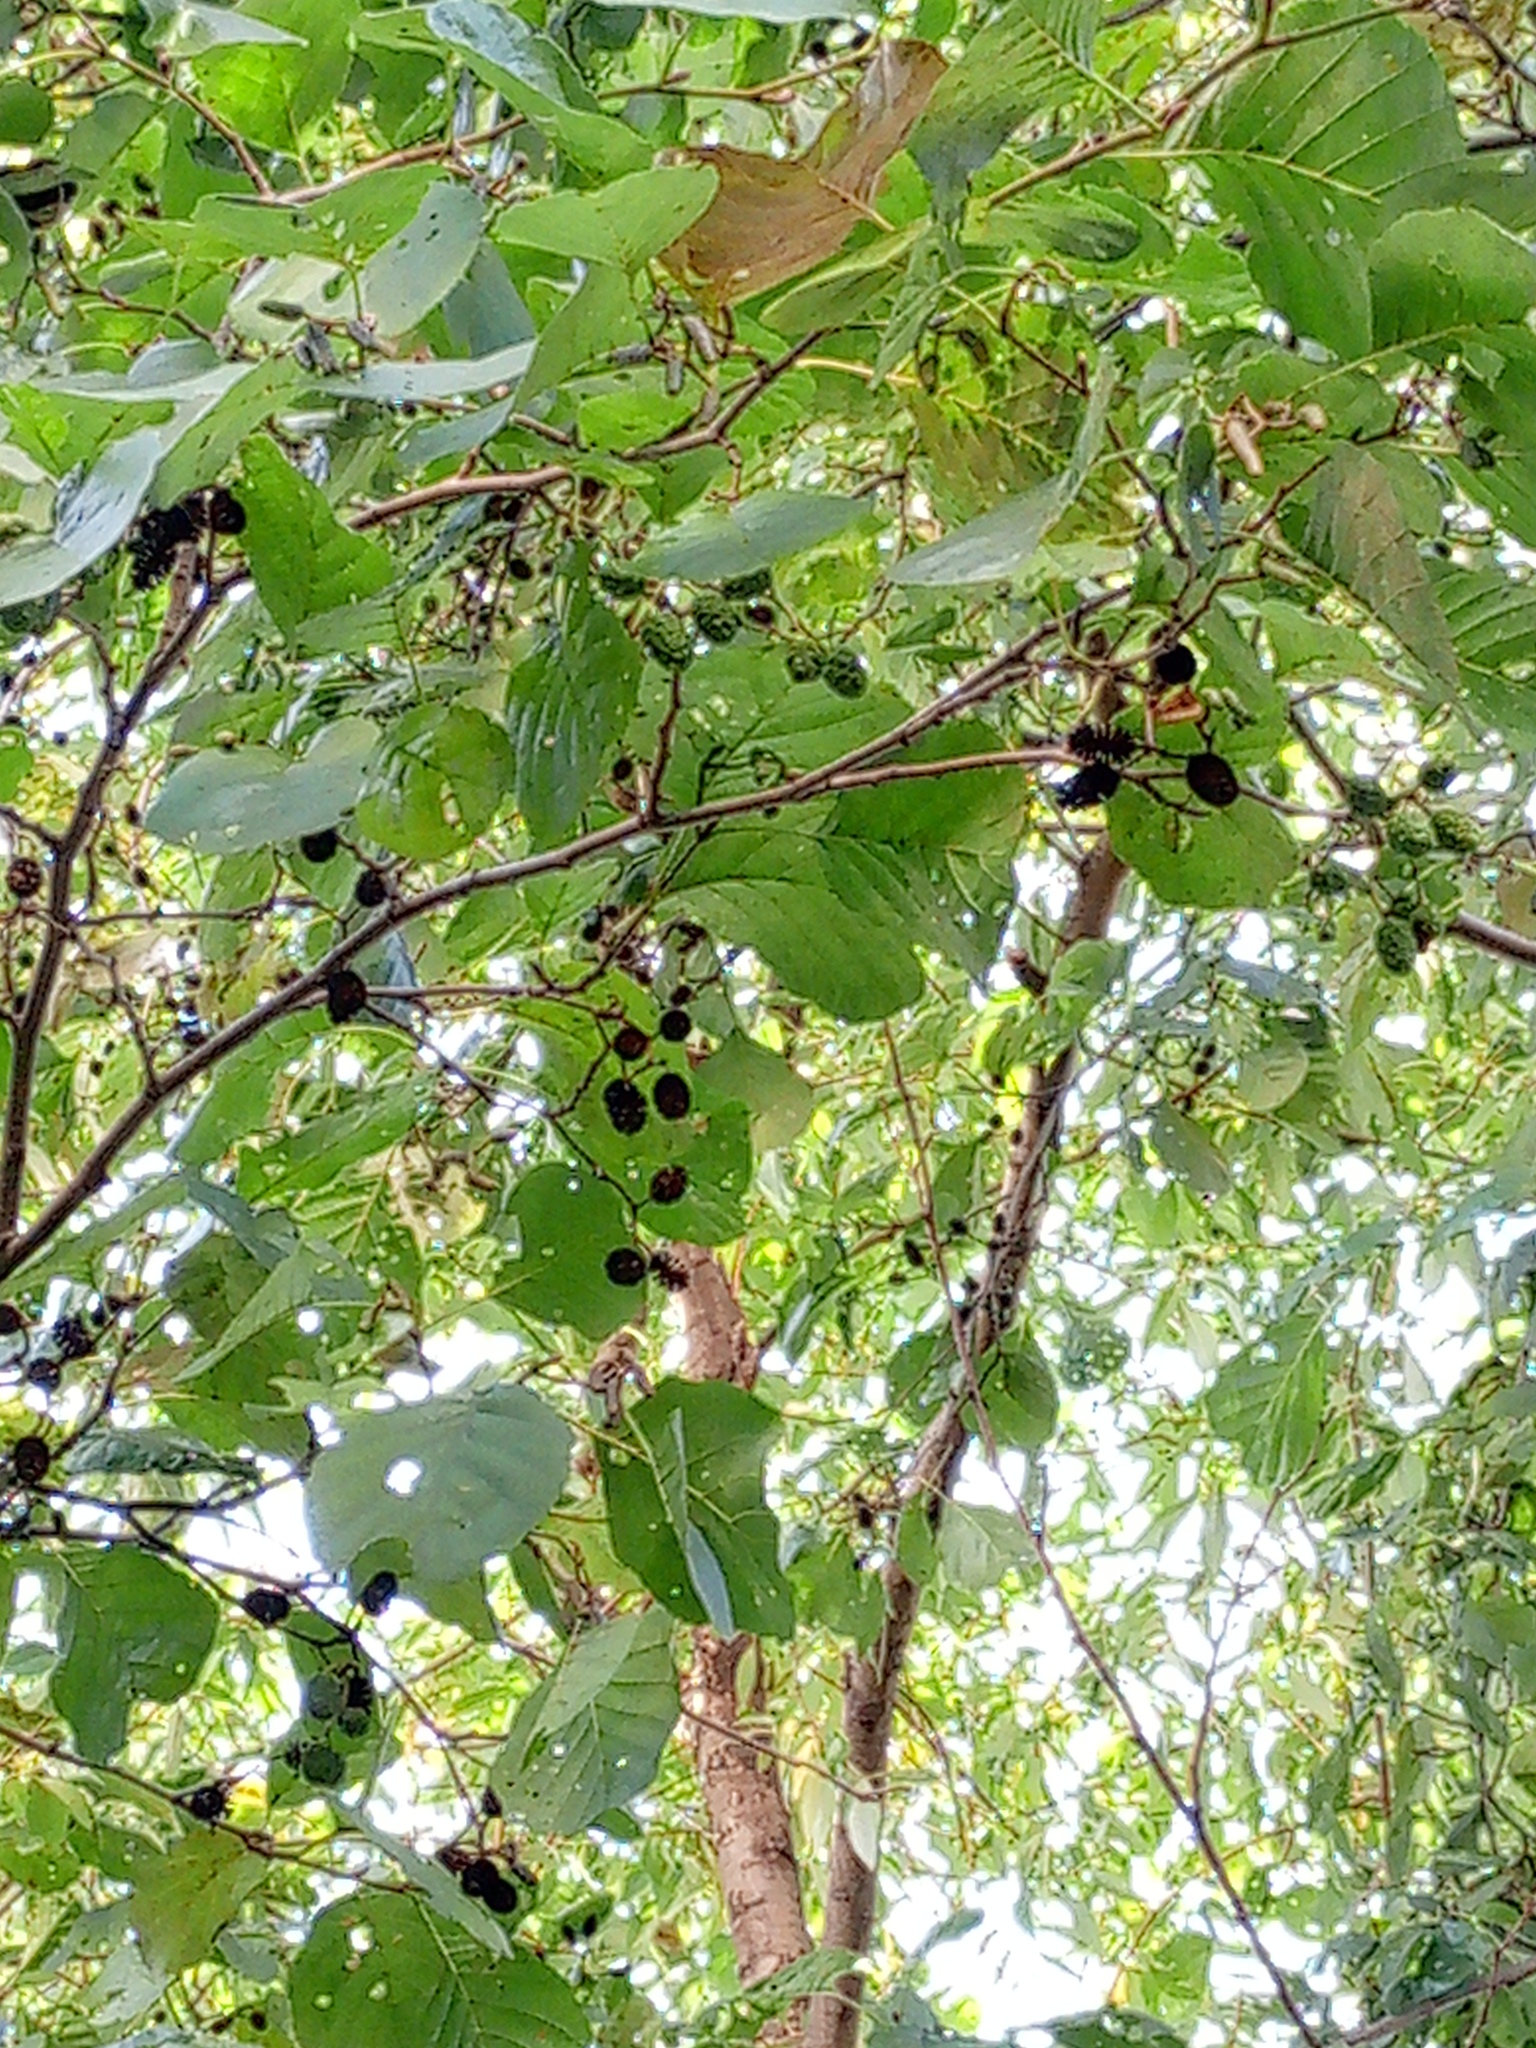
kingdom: Plantae
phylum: Tracheophyta
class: Magnoliopsida
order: Fagales
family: Betulaceae
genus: Alnus
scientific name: Alnus glutinosa
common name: Black alder
